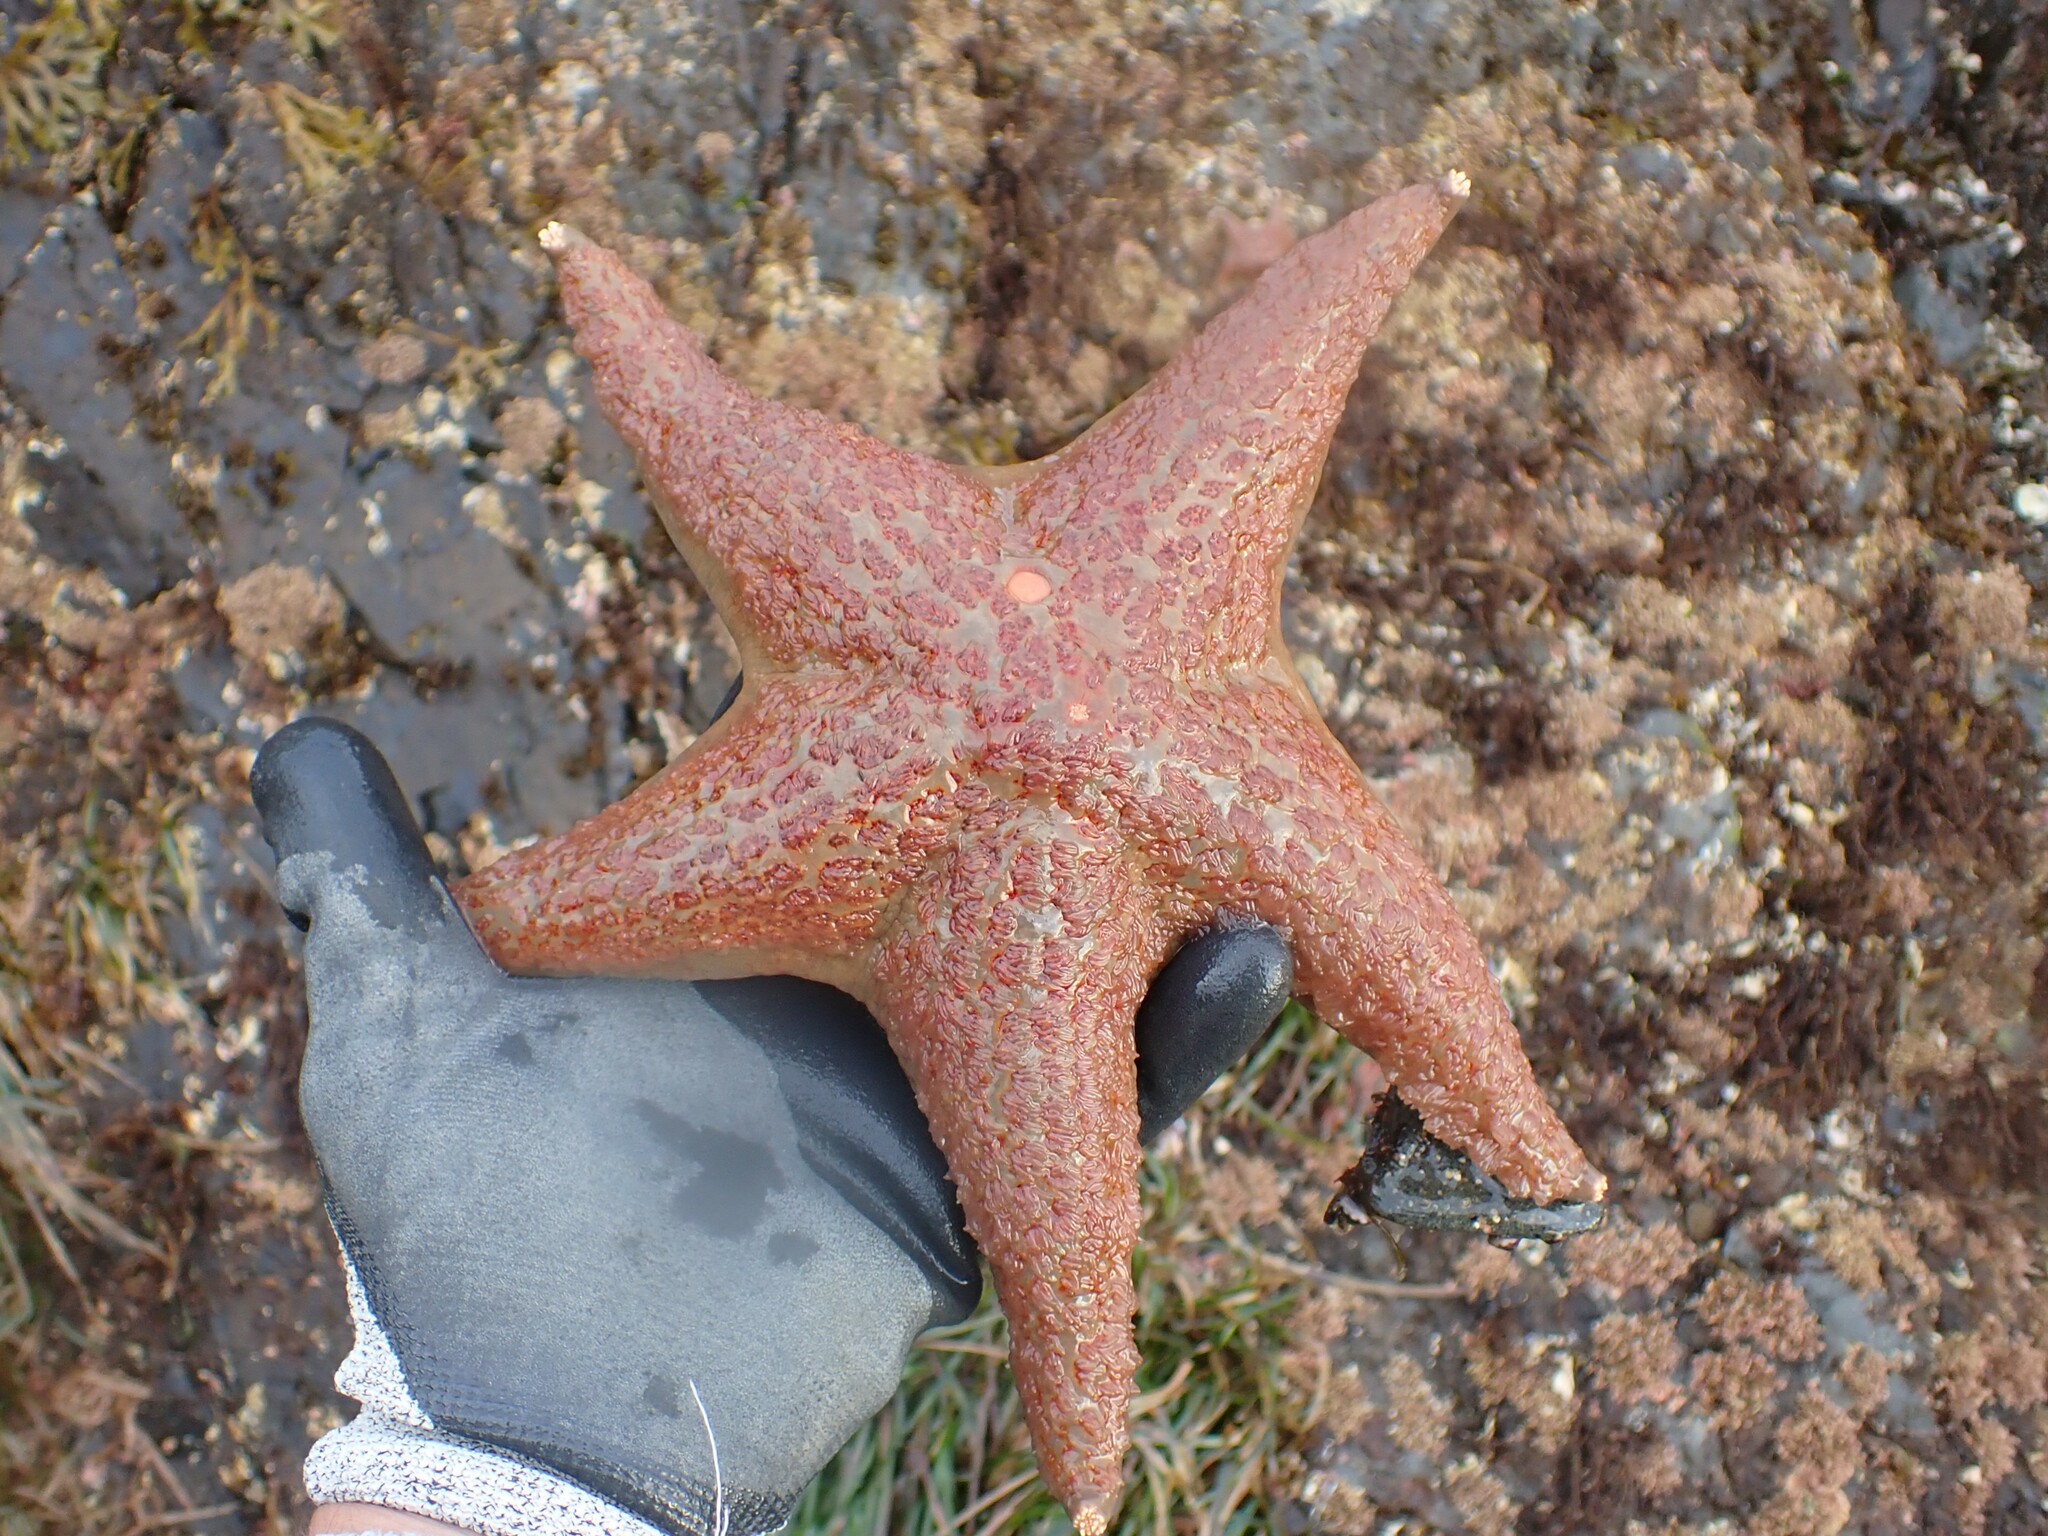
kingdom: Animalia
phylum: Echinodermata
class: Asteroidea
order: Valvatida
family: Asteropseidae
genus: Dermasterias
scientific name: Dermasterias imbricata
